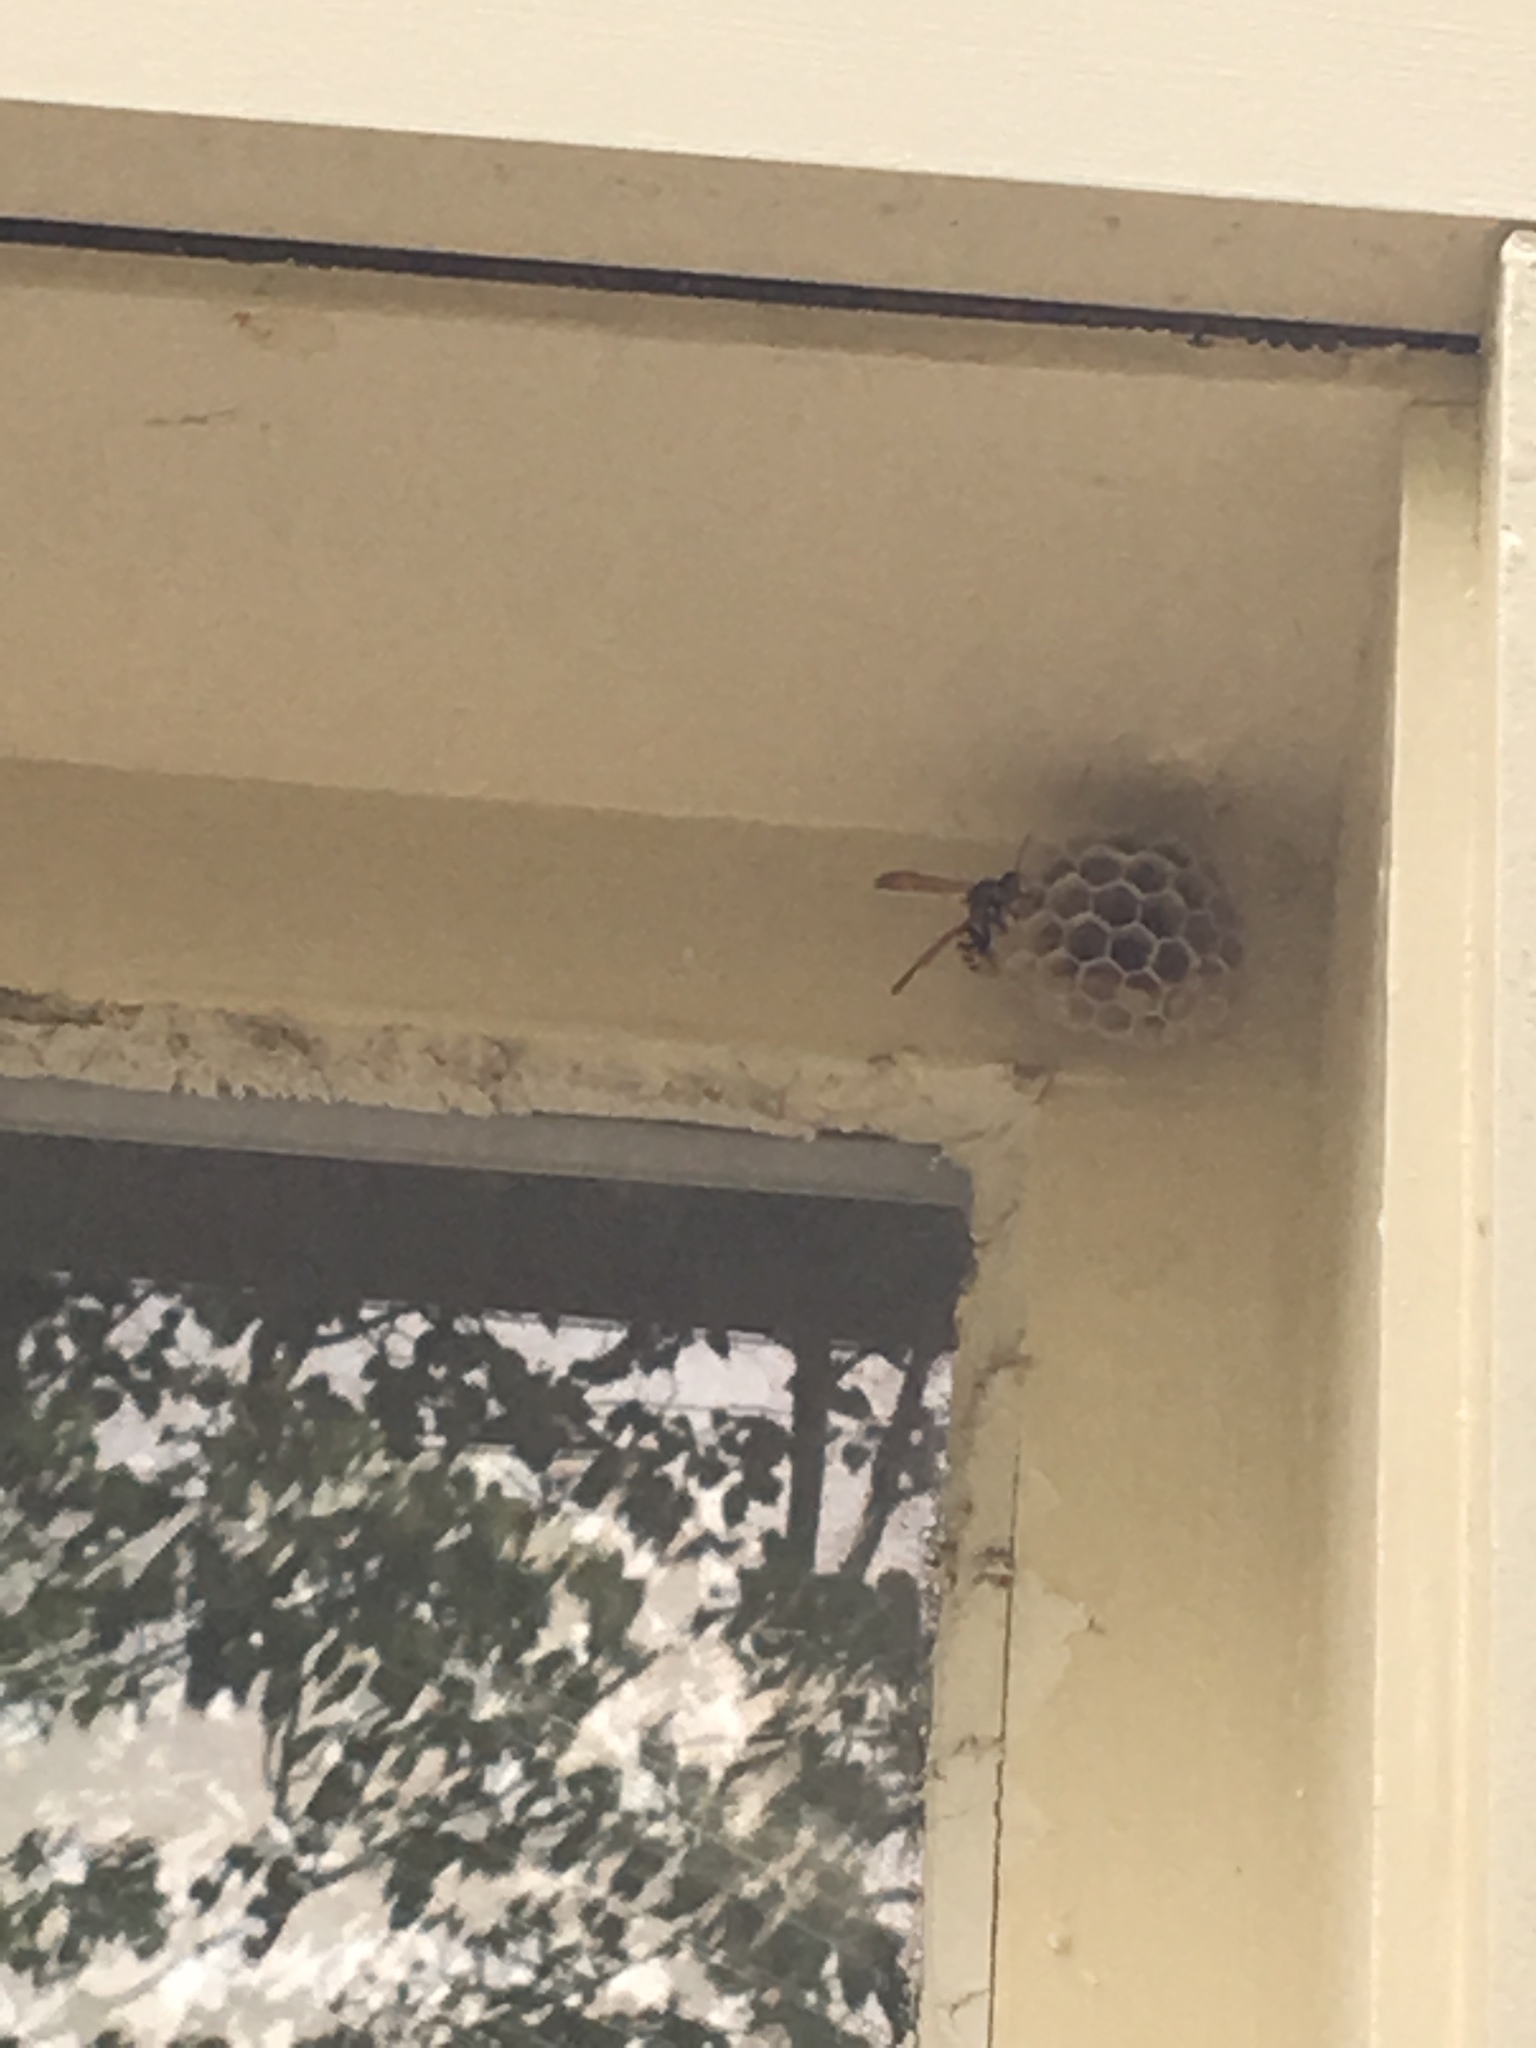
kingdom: Animalia
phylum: Arthropoda
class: Insecta
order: Hymenoptera
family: Eumenidae
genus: Polistes
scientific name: Polistes
